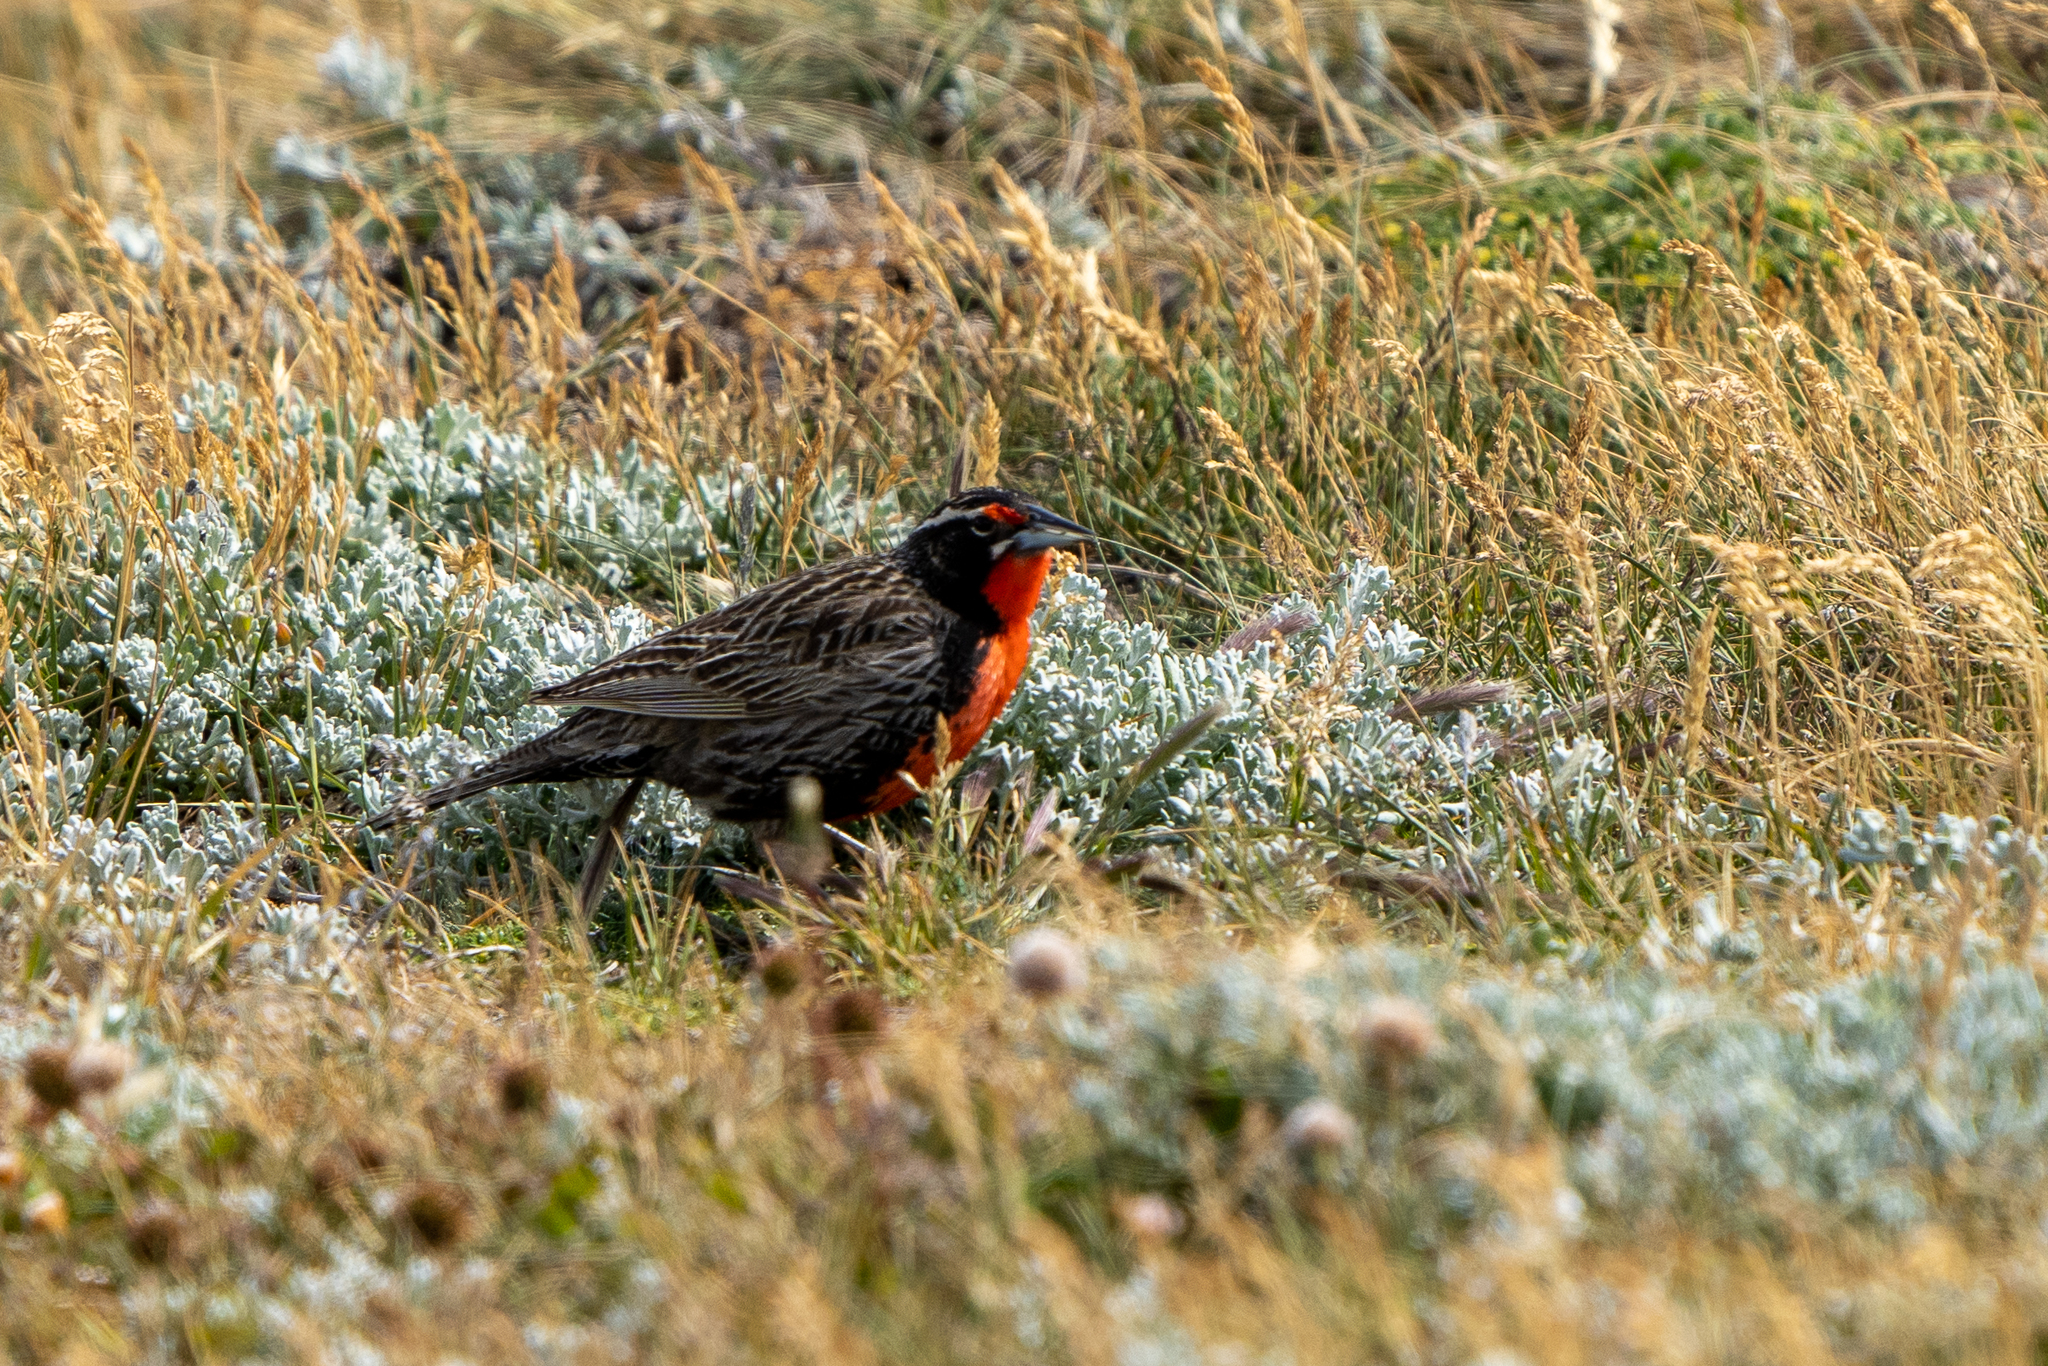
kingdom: Animalia
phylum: Chordata
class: Aves
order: Passeriformes
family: Icteridae
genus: Sturnella
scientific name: Sturnella loyca
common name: Long-tailed meadowlark
